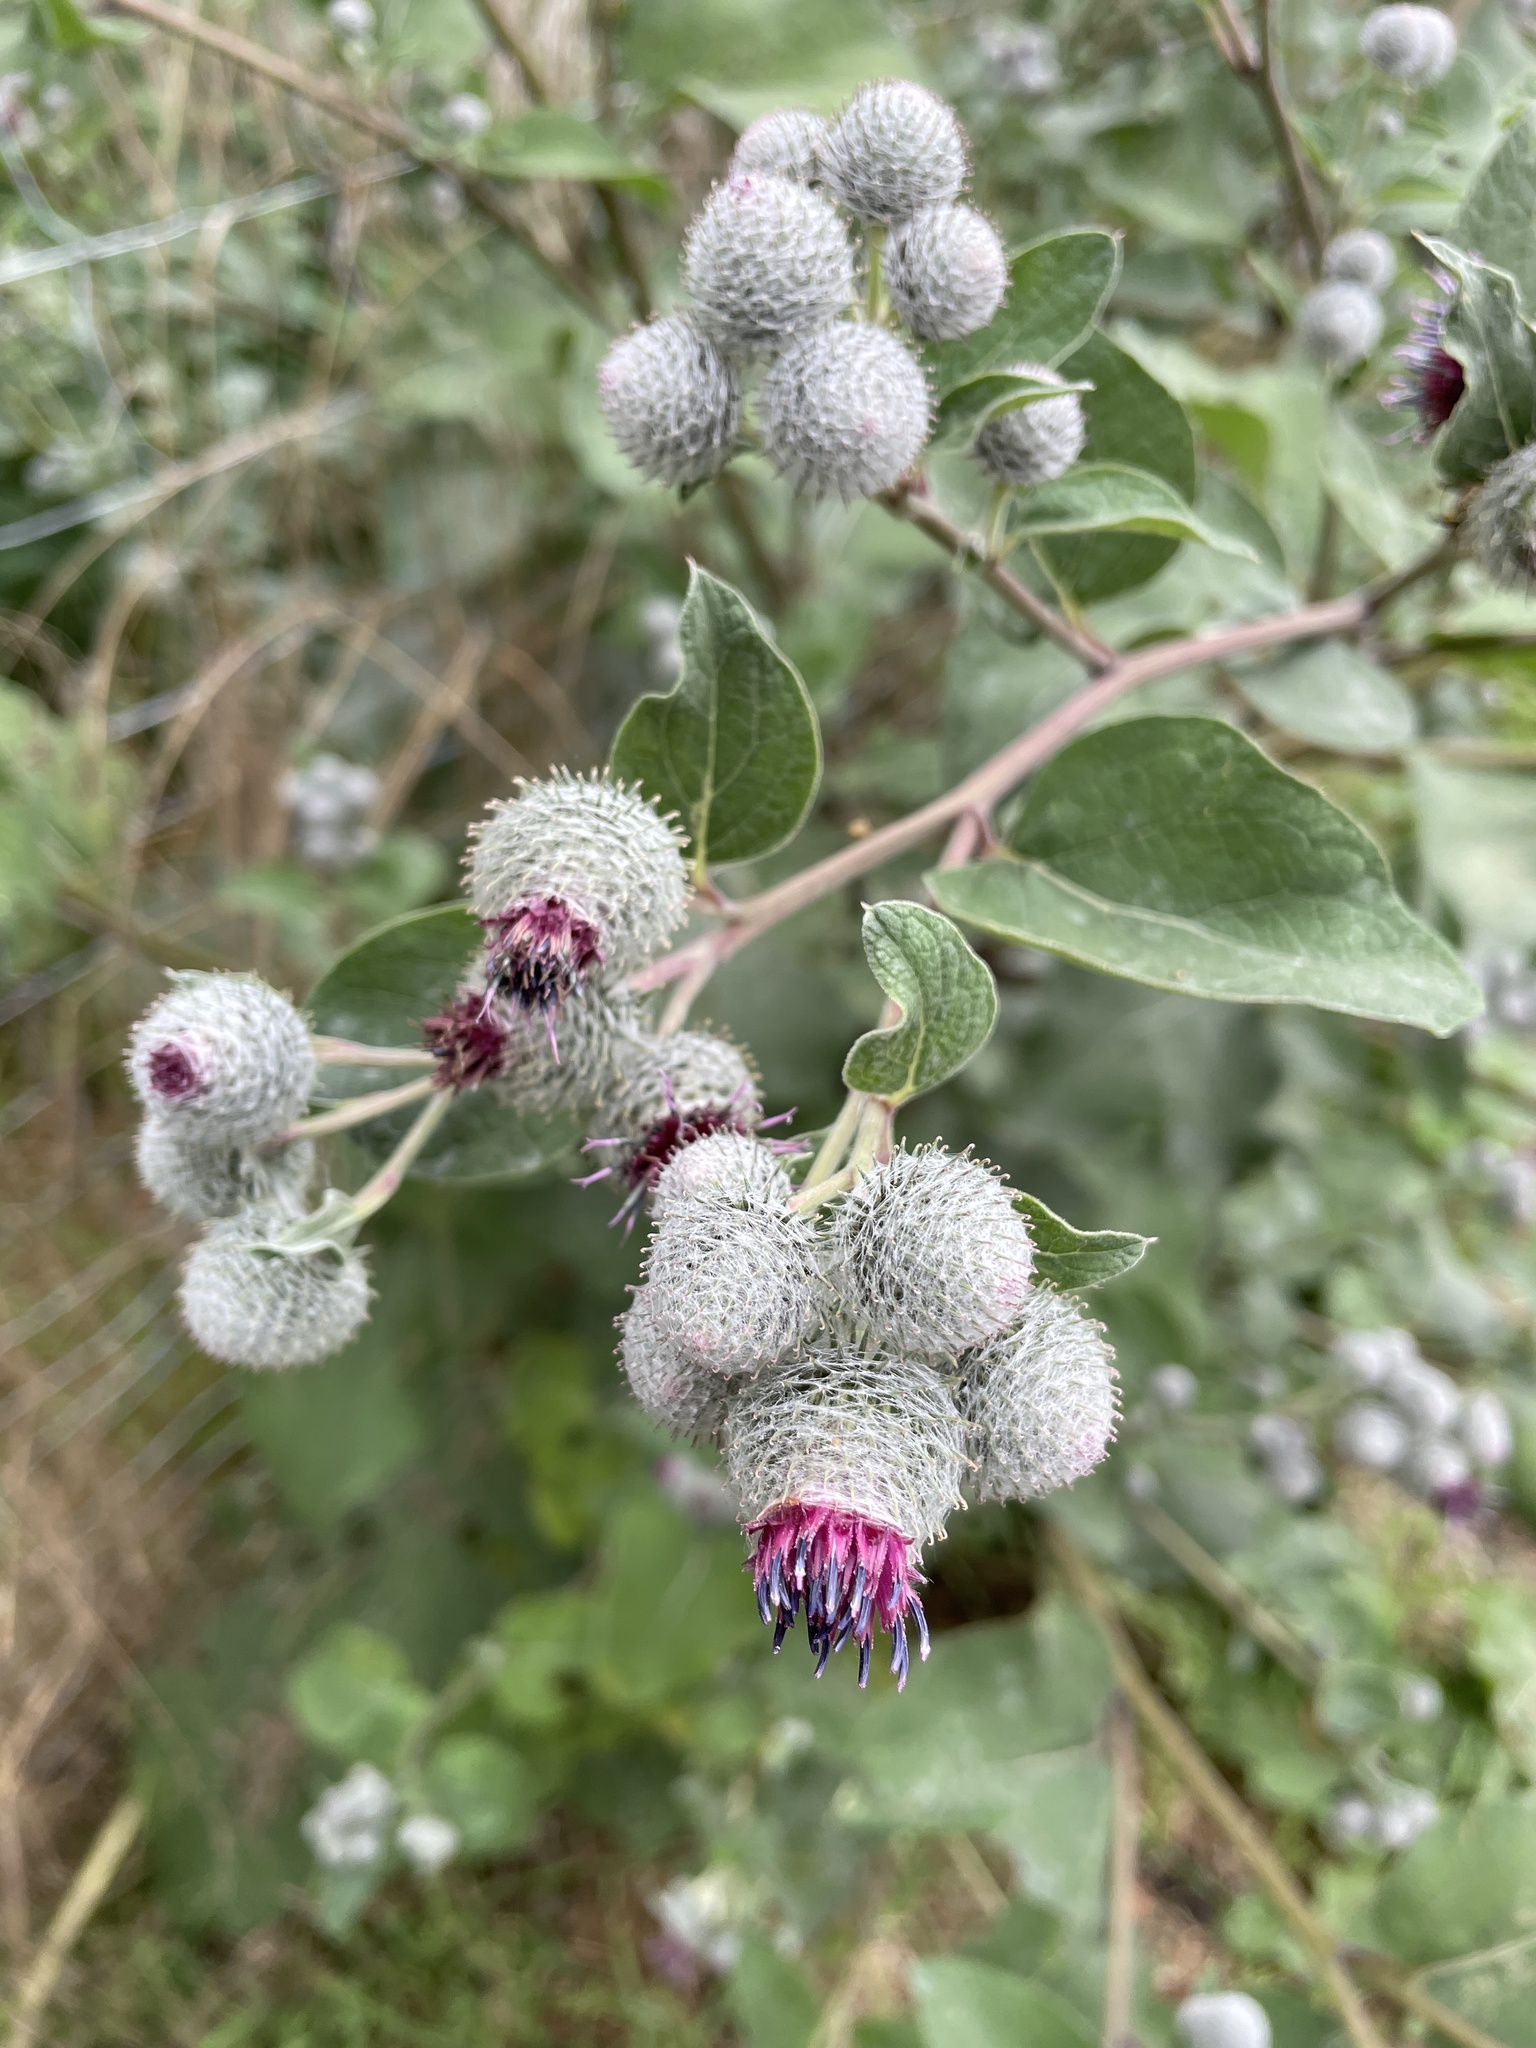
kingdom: Plantae
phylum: Tracheophyta
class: Magnoliopsida
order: Asterales
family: Asteraceae
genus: Arctium
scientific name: Arctium tomentosum
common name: Woolly burdock
